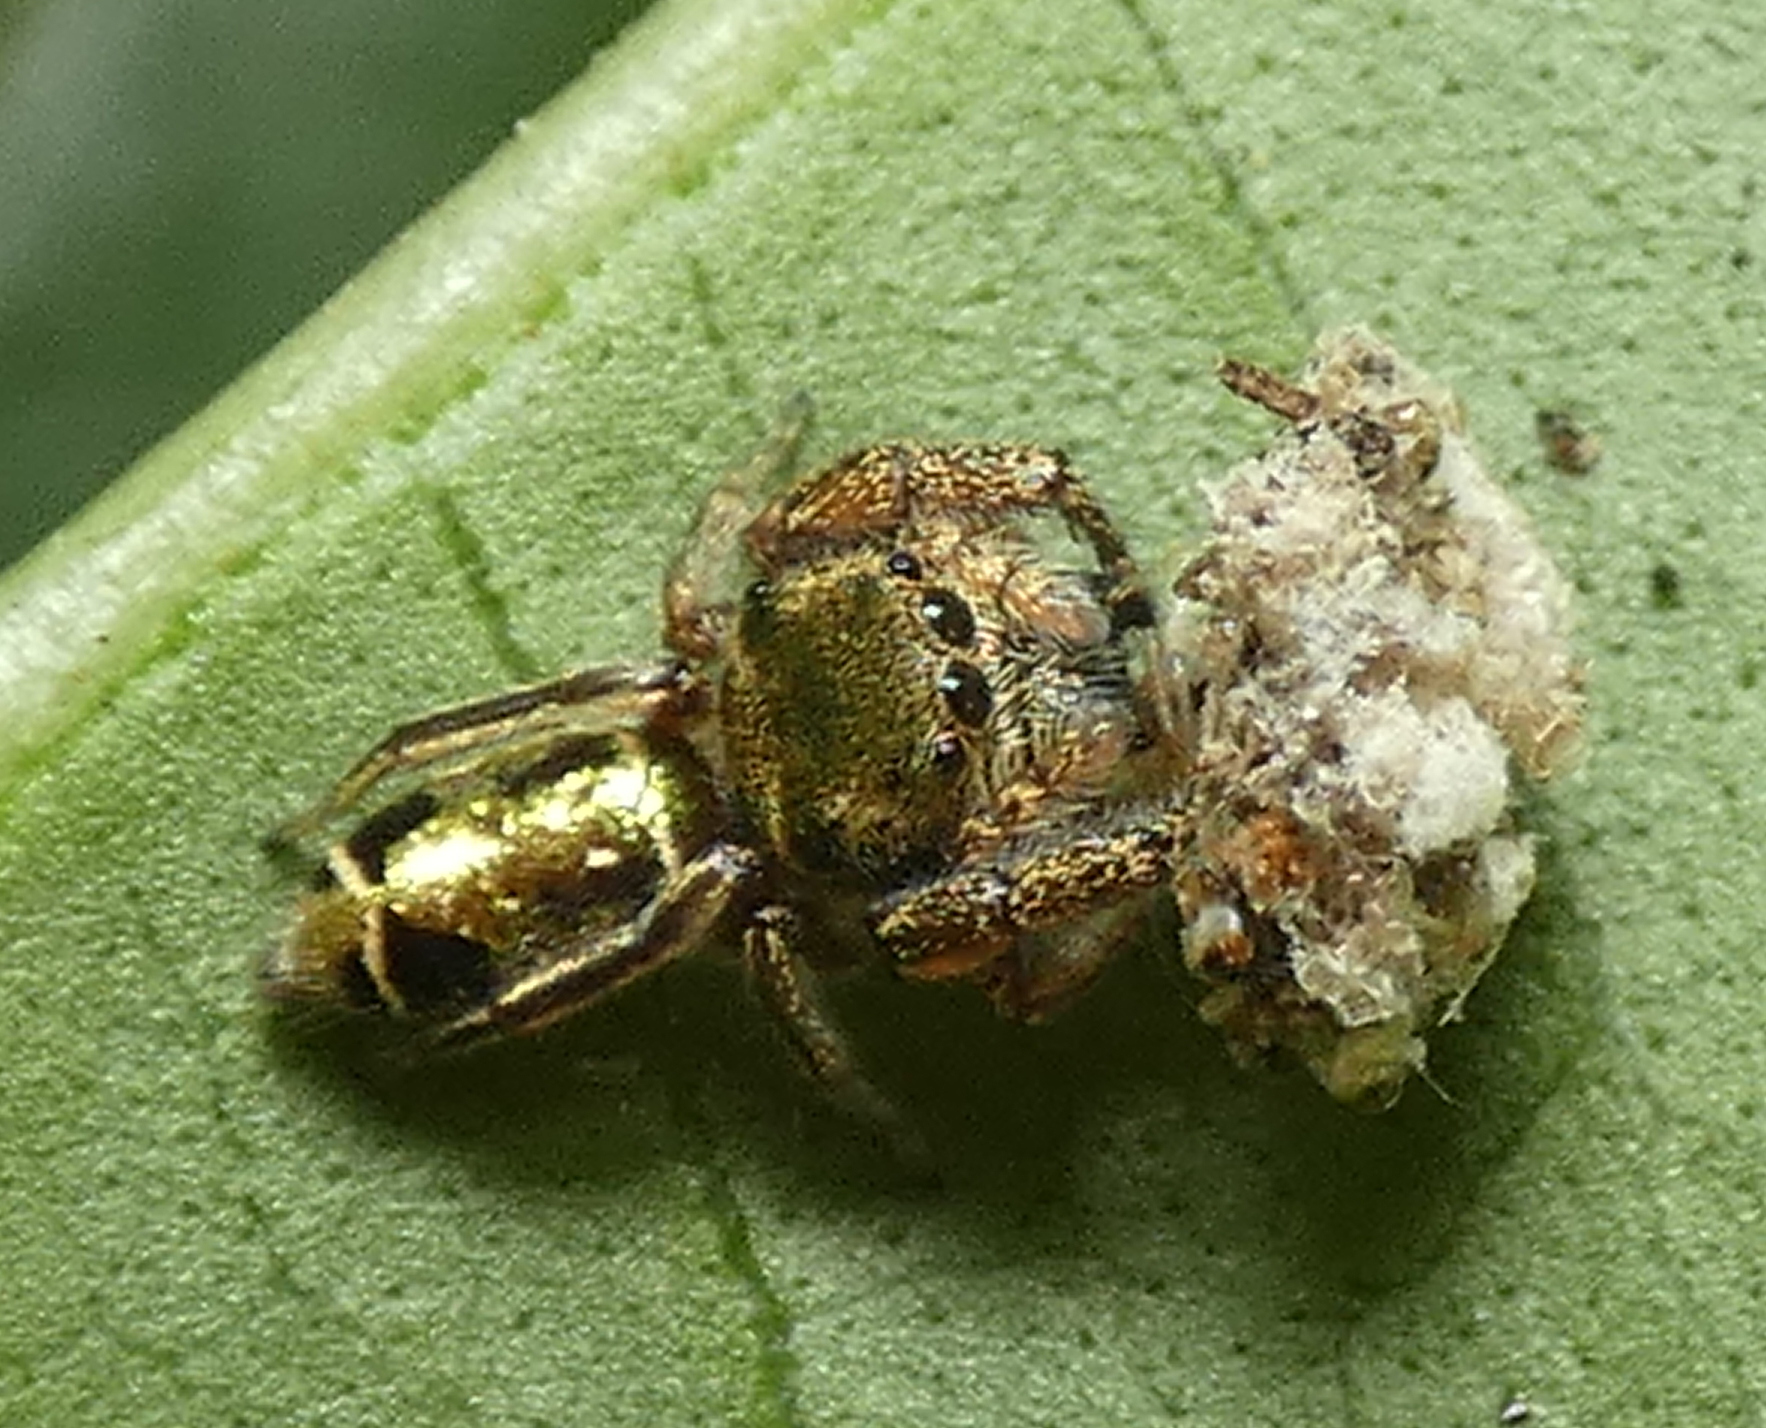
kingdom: Animalia
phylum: Arthropoda
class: Arachnida
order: Araneae
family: Salticidae
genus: Bryantella
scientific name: Bryantella smaragda
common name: Jumping spiders
